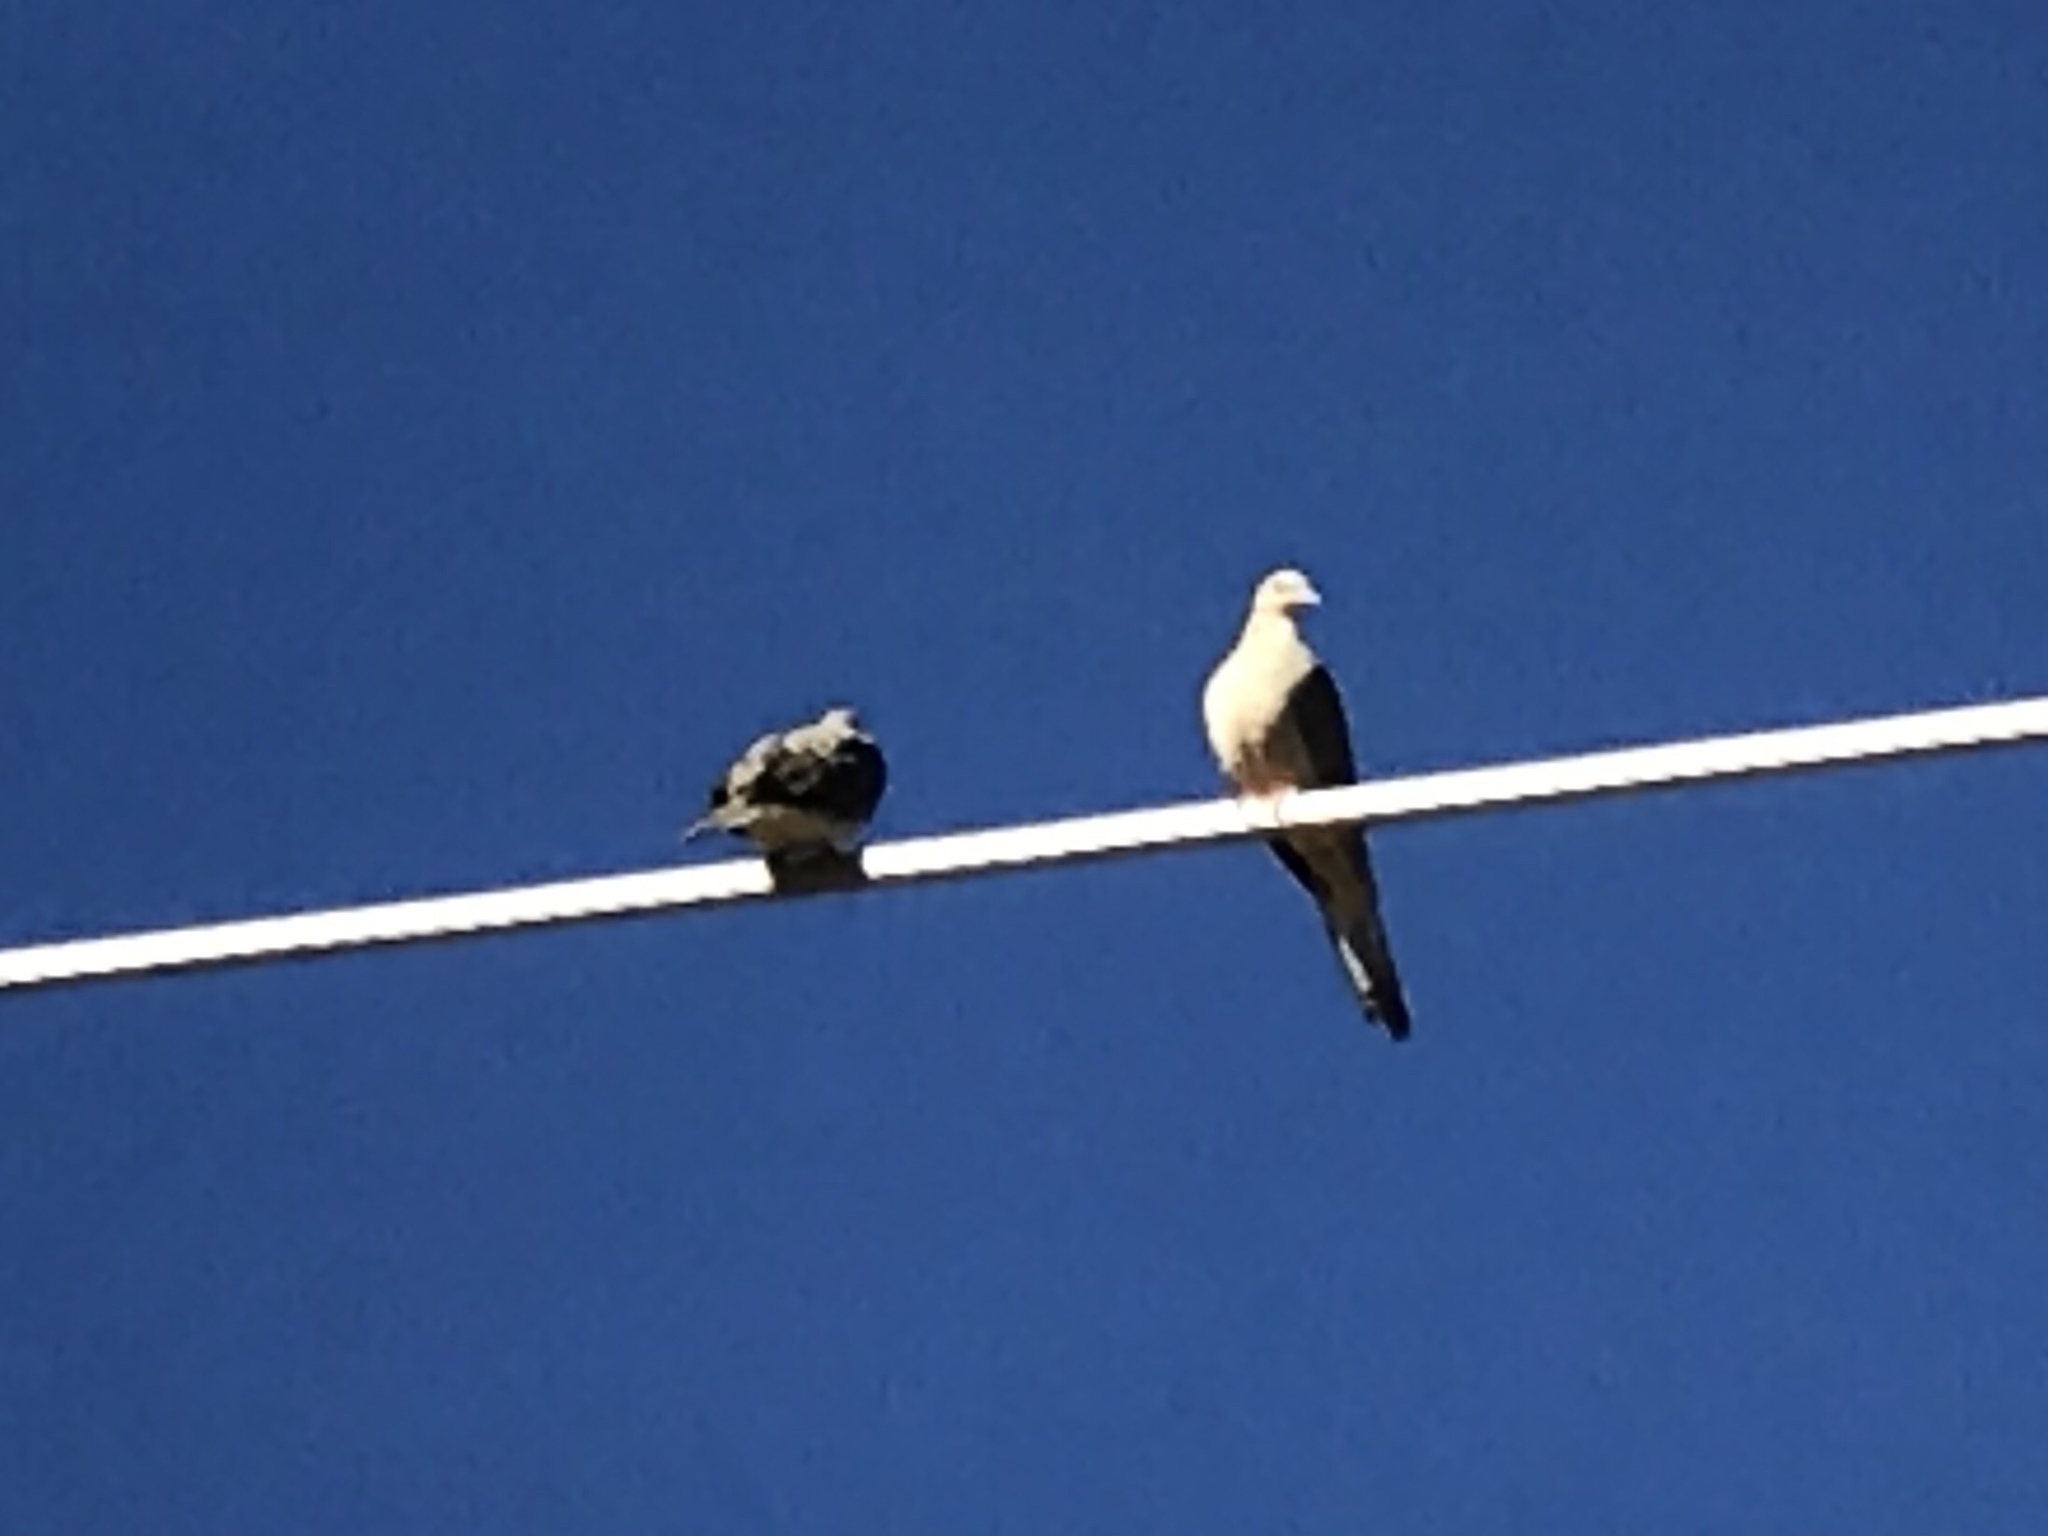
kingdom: Animalia
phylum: Chordata
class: Aves
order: Columbiformes
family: Columbidae
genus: Zenaida
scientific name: Zenaida macroura
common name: Mourning dove
